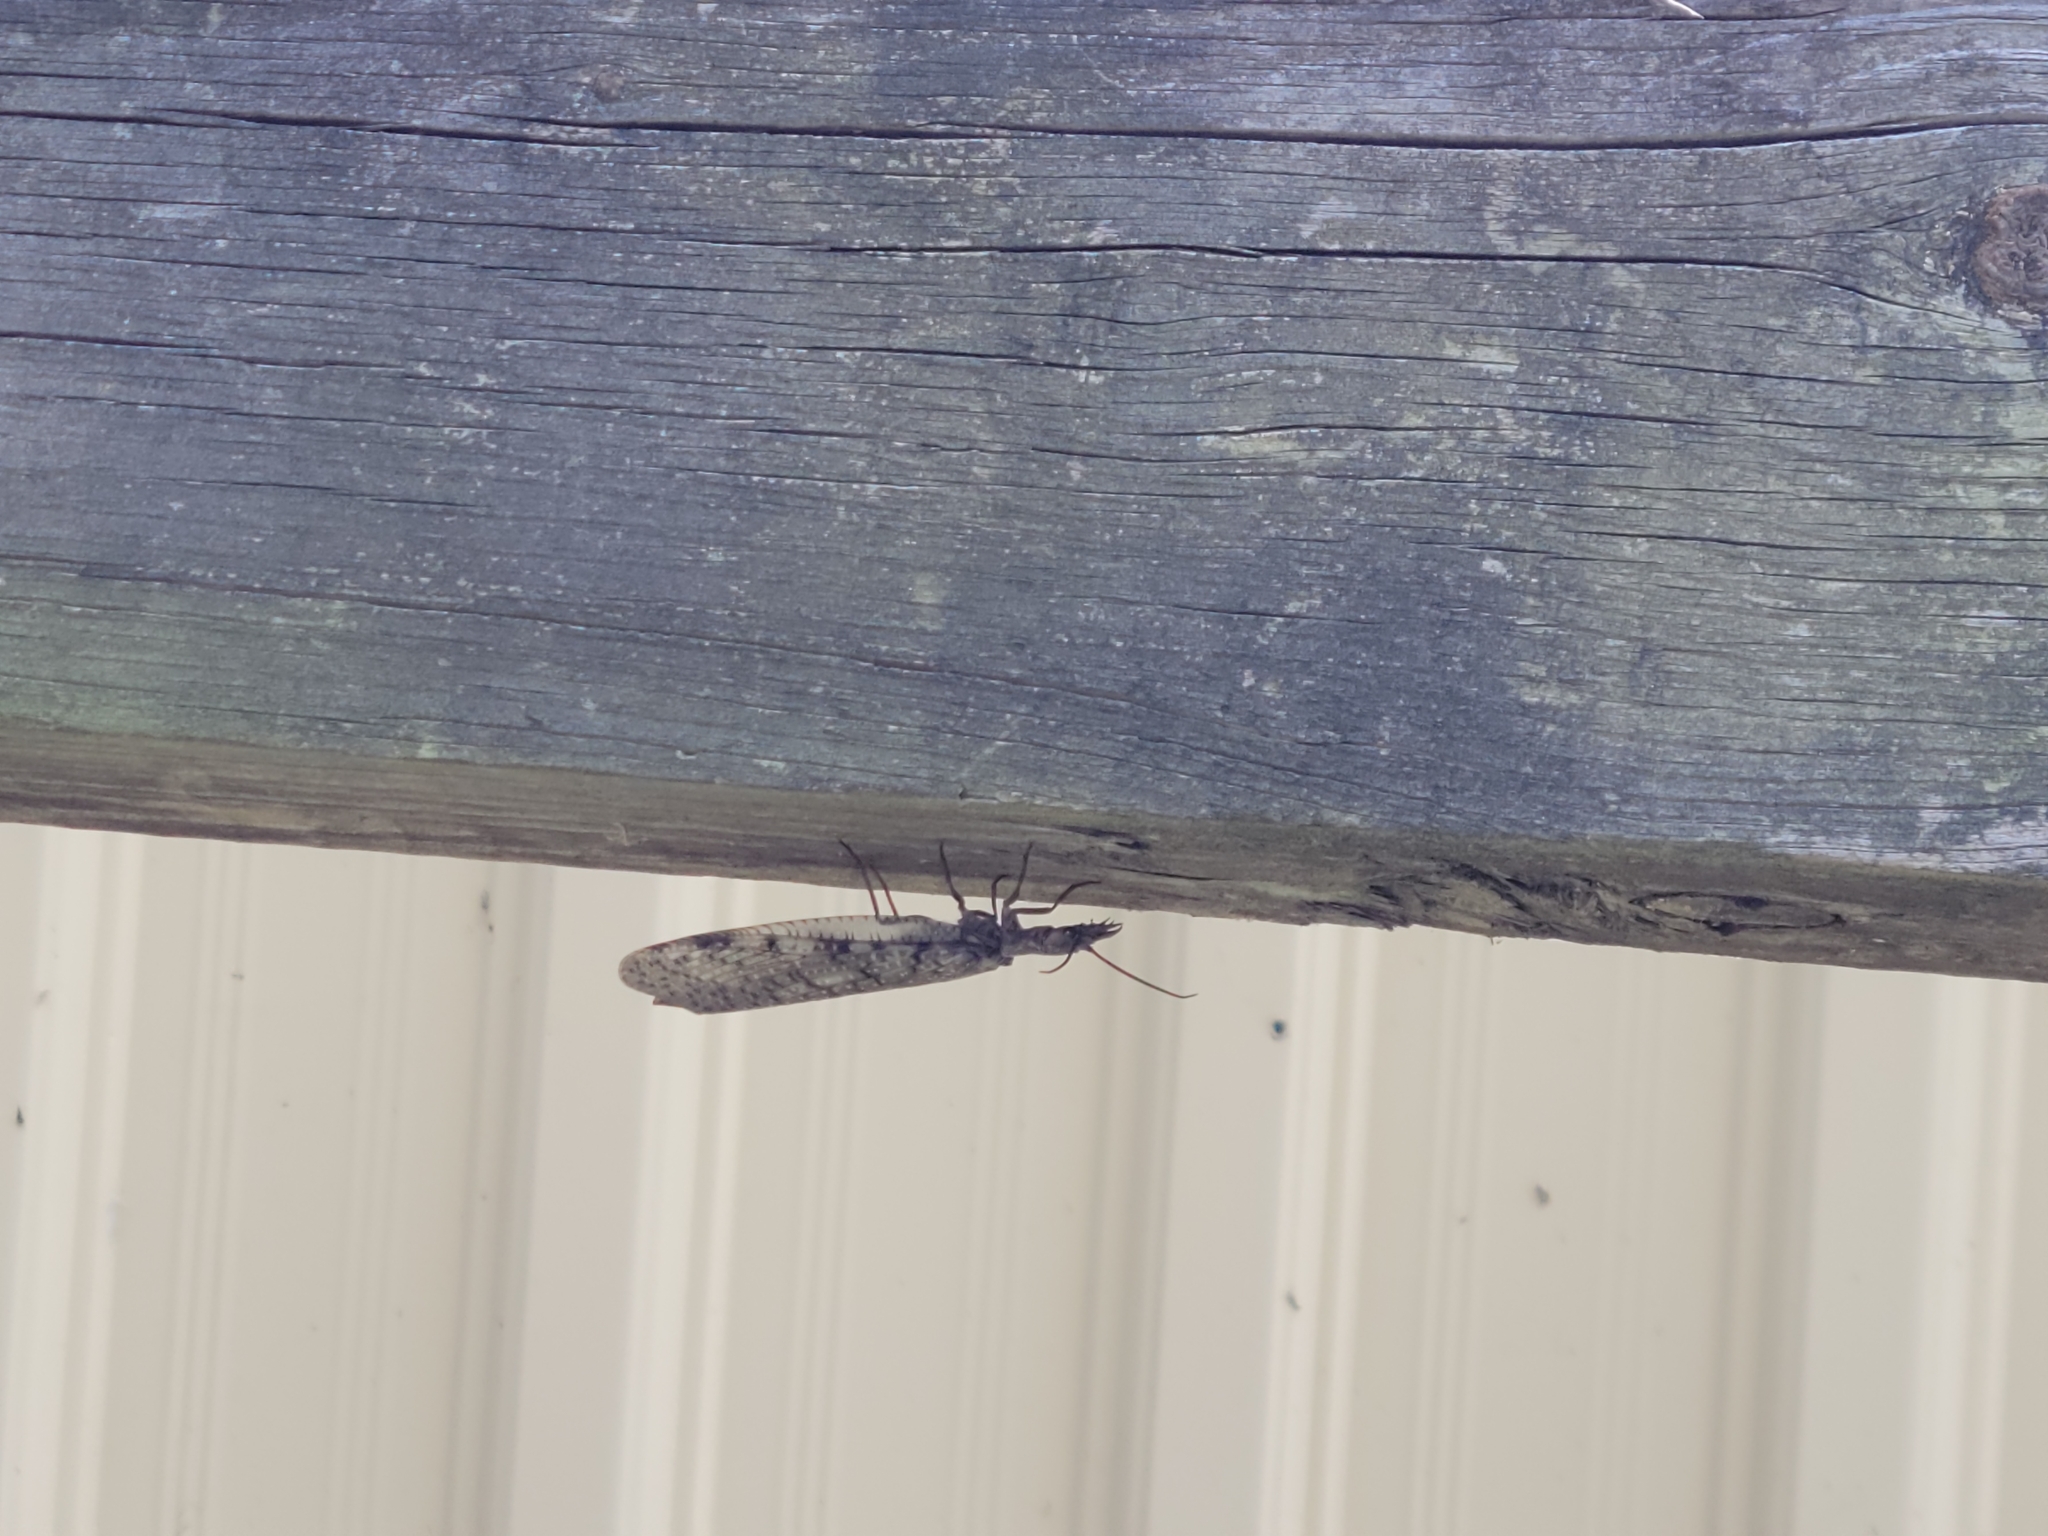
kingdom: Animalia
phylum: Arthropoda
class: Insecta
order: Megaloptera
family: Corydalidae
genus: Corydalus
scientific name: Corydalus cornutus
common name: Dobsonfly
